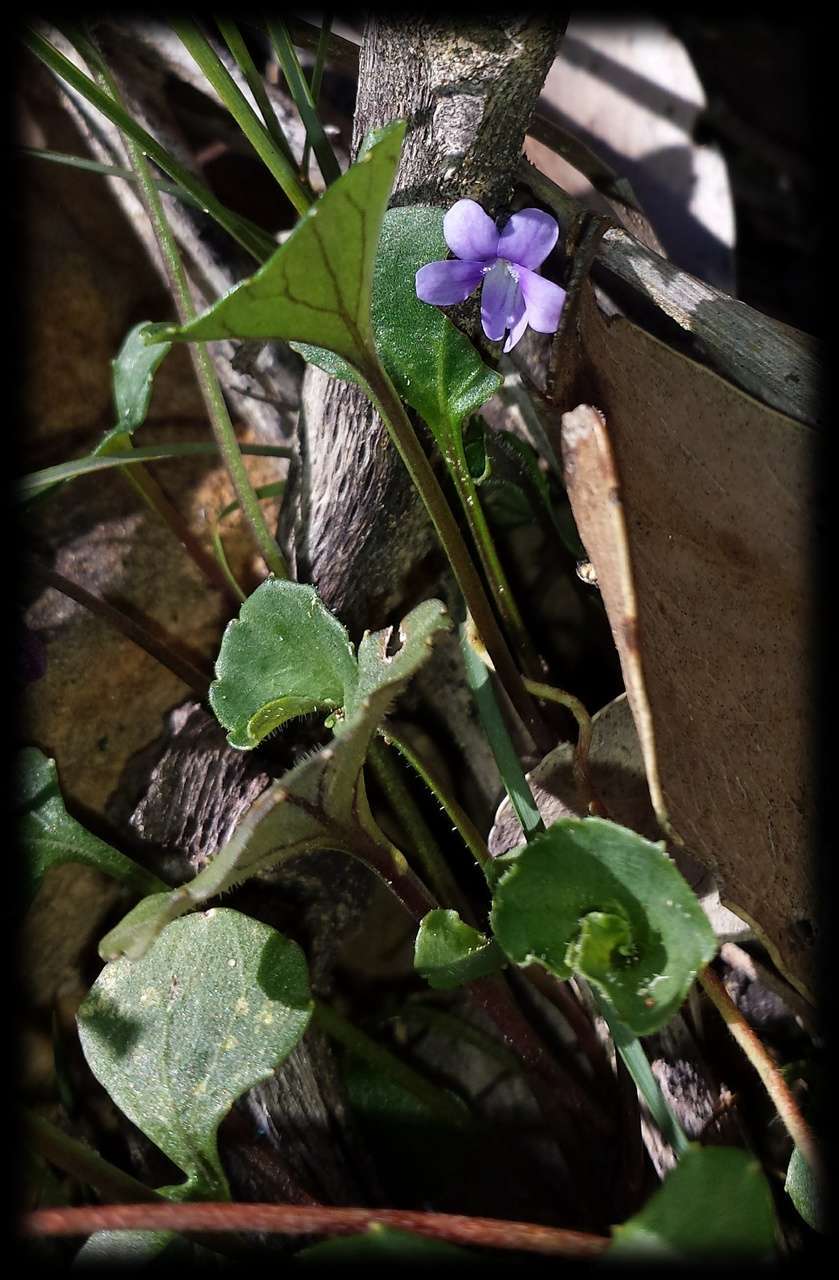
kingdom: Plantae
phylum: Tracheophyta
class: Magnoliopsida
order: Malpighiales
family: Violaceae
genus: Viola
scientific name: Viola sieberiana
